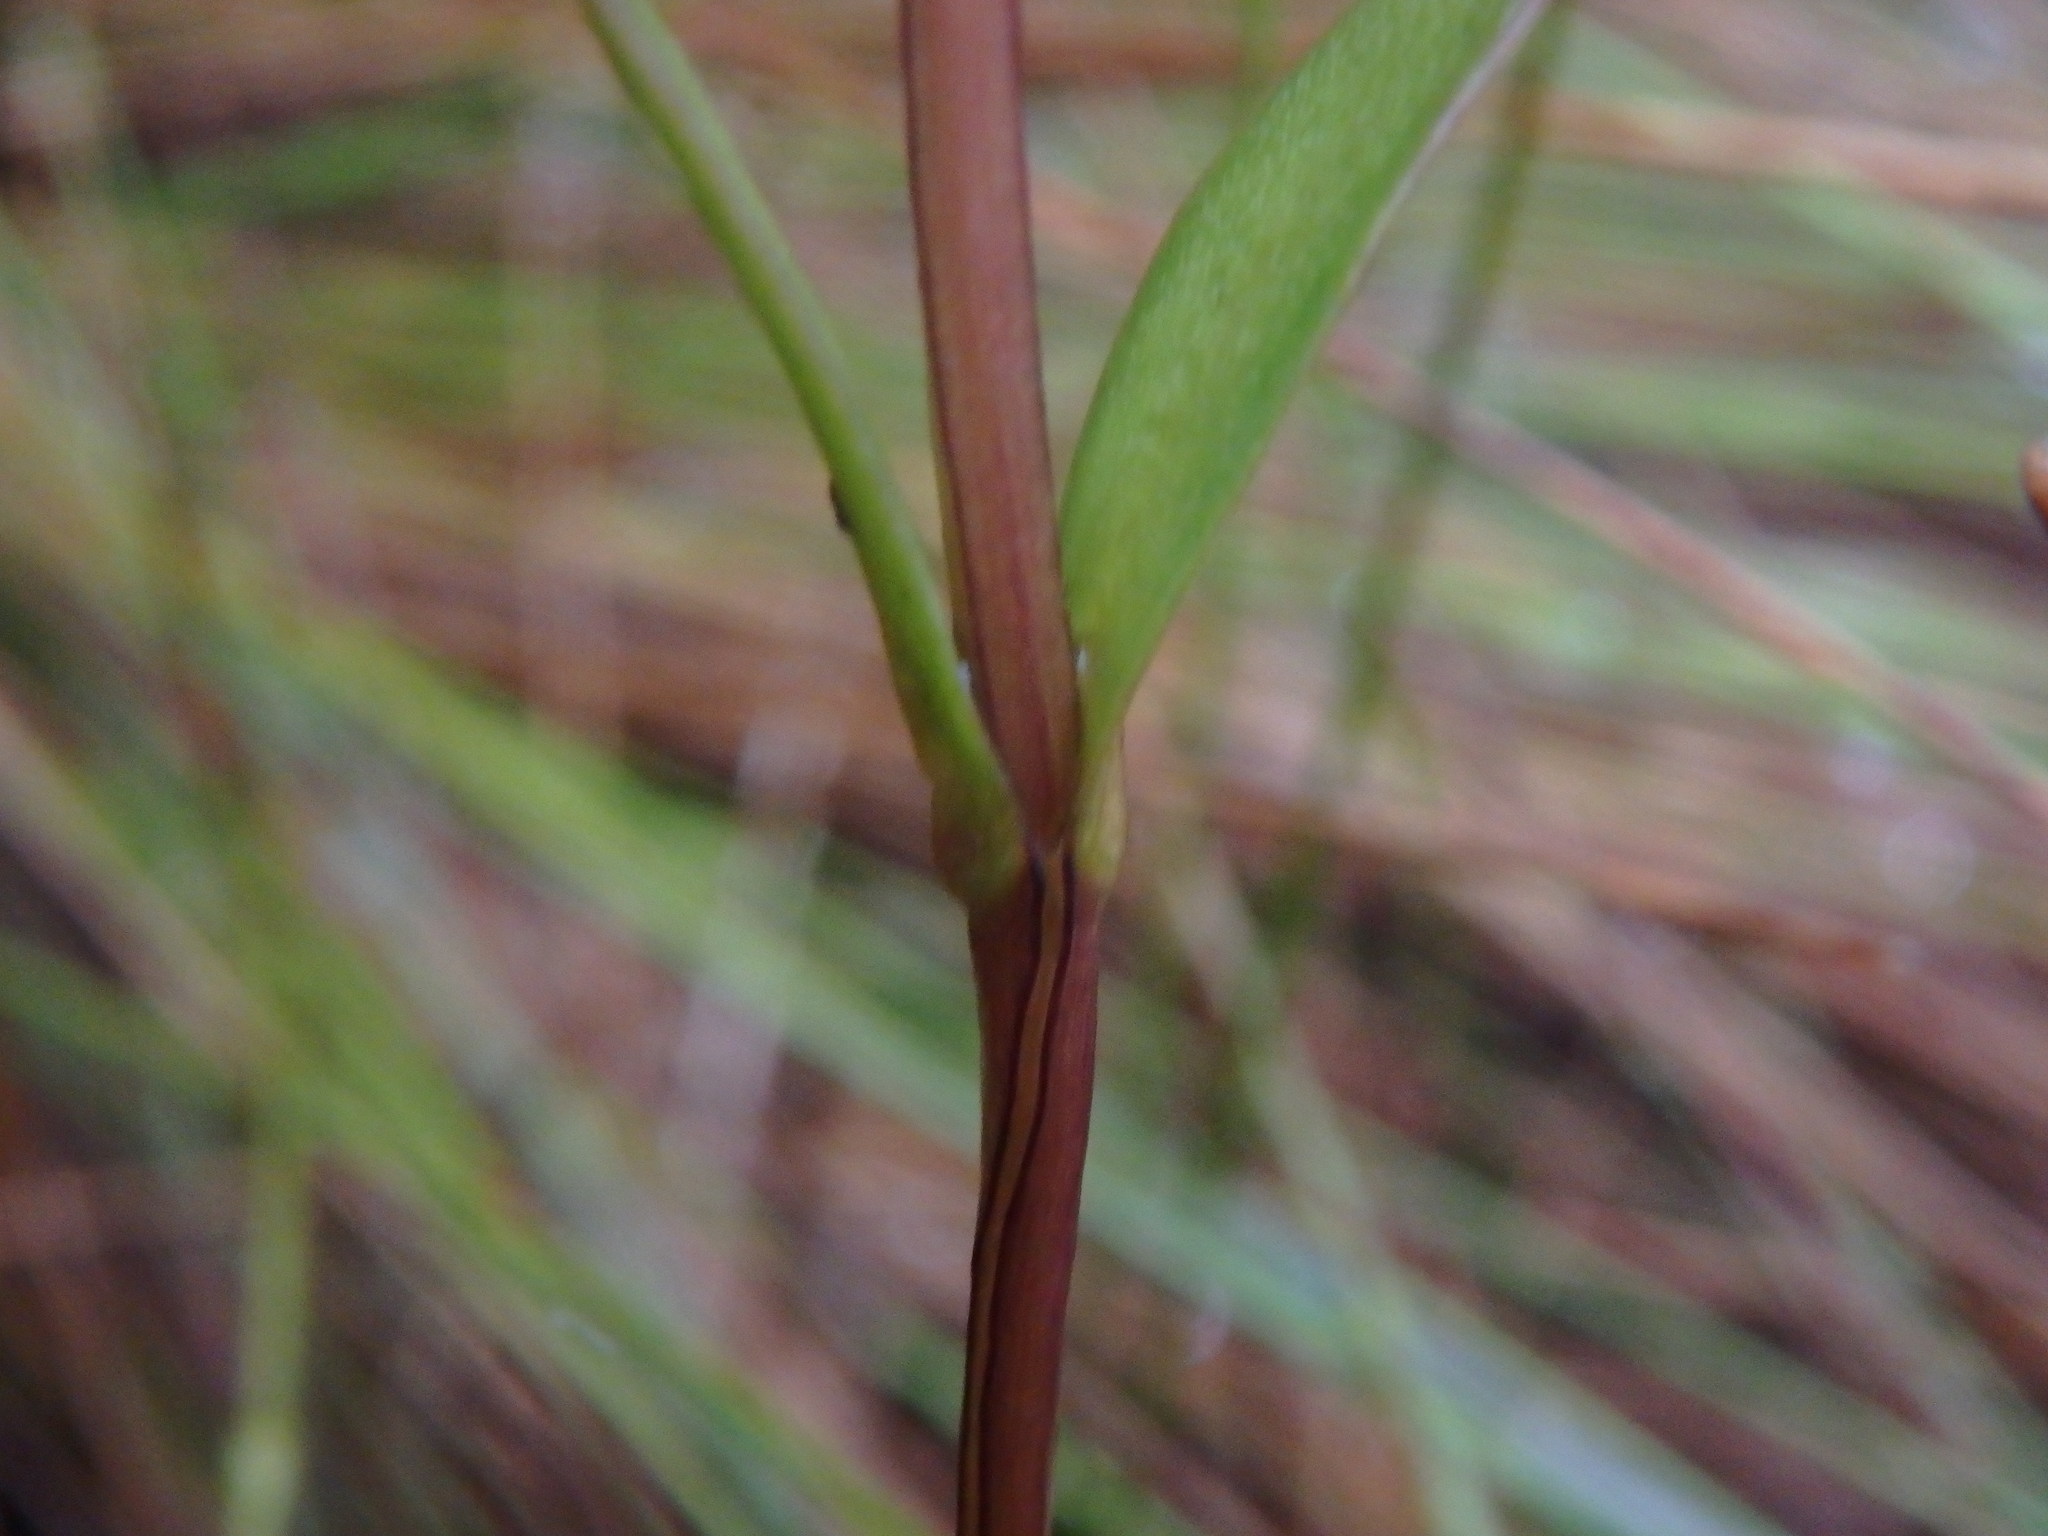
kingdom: Plantae
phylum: Tracheophyta
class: Magnoliopsida
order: Gentianales
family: Gentianaceae
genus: Gentianella
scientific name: Gentianella corymbosa
